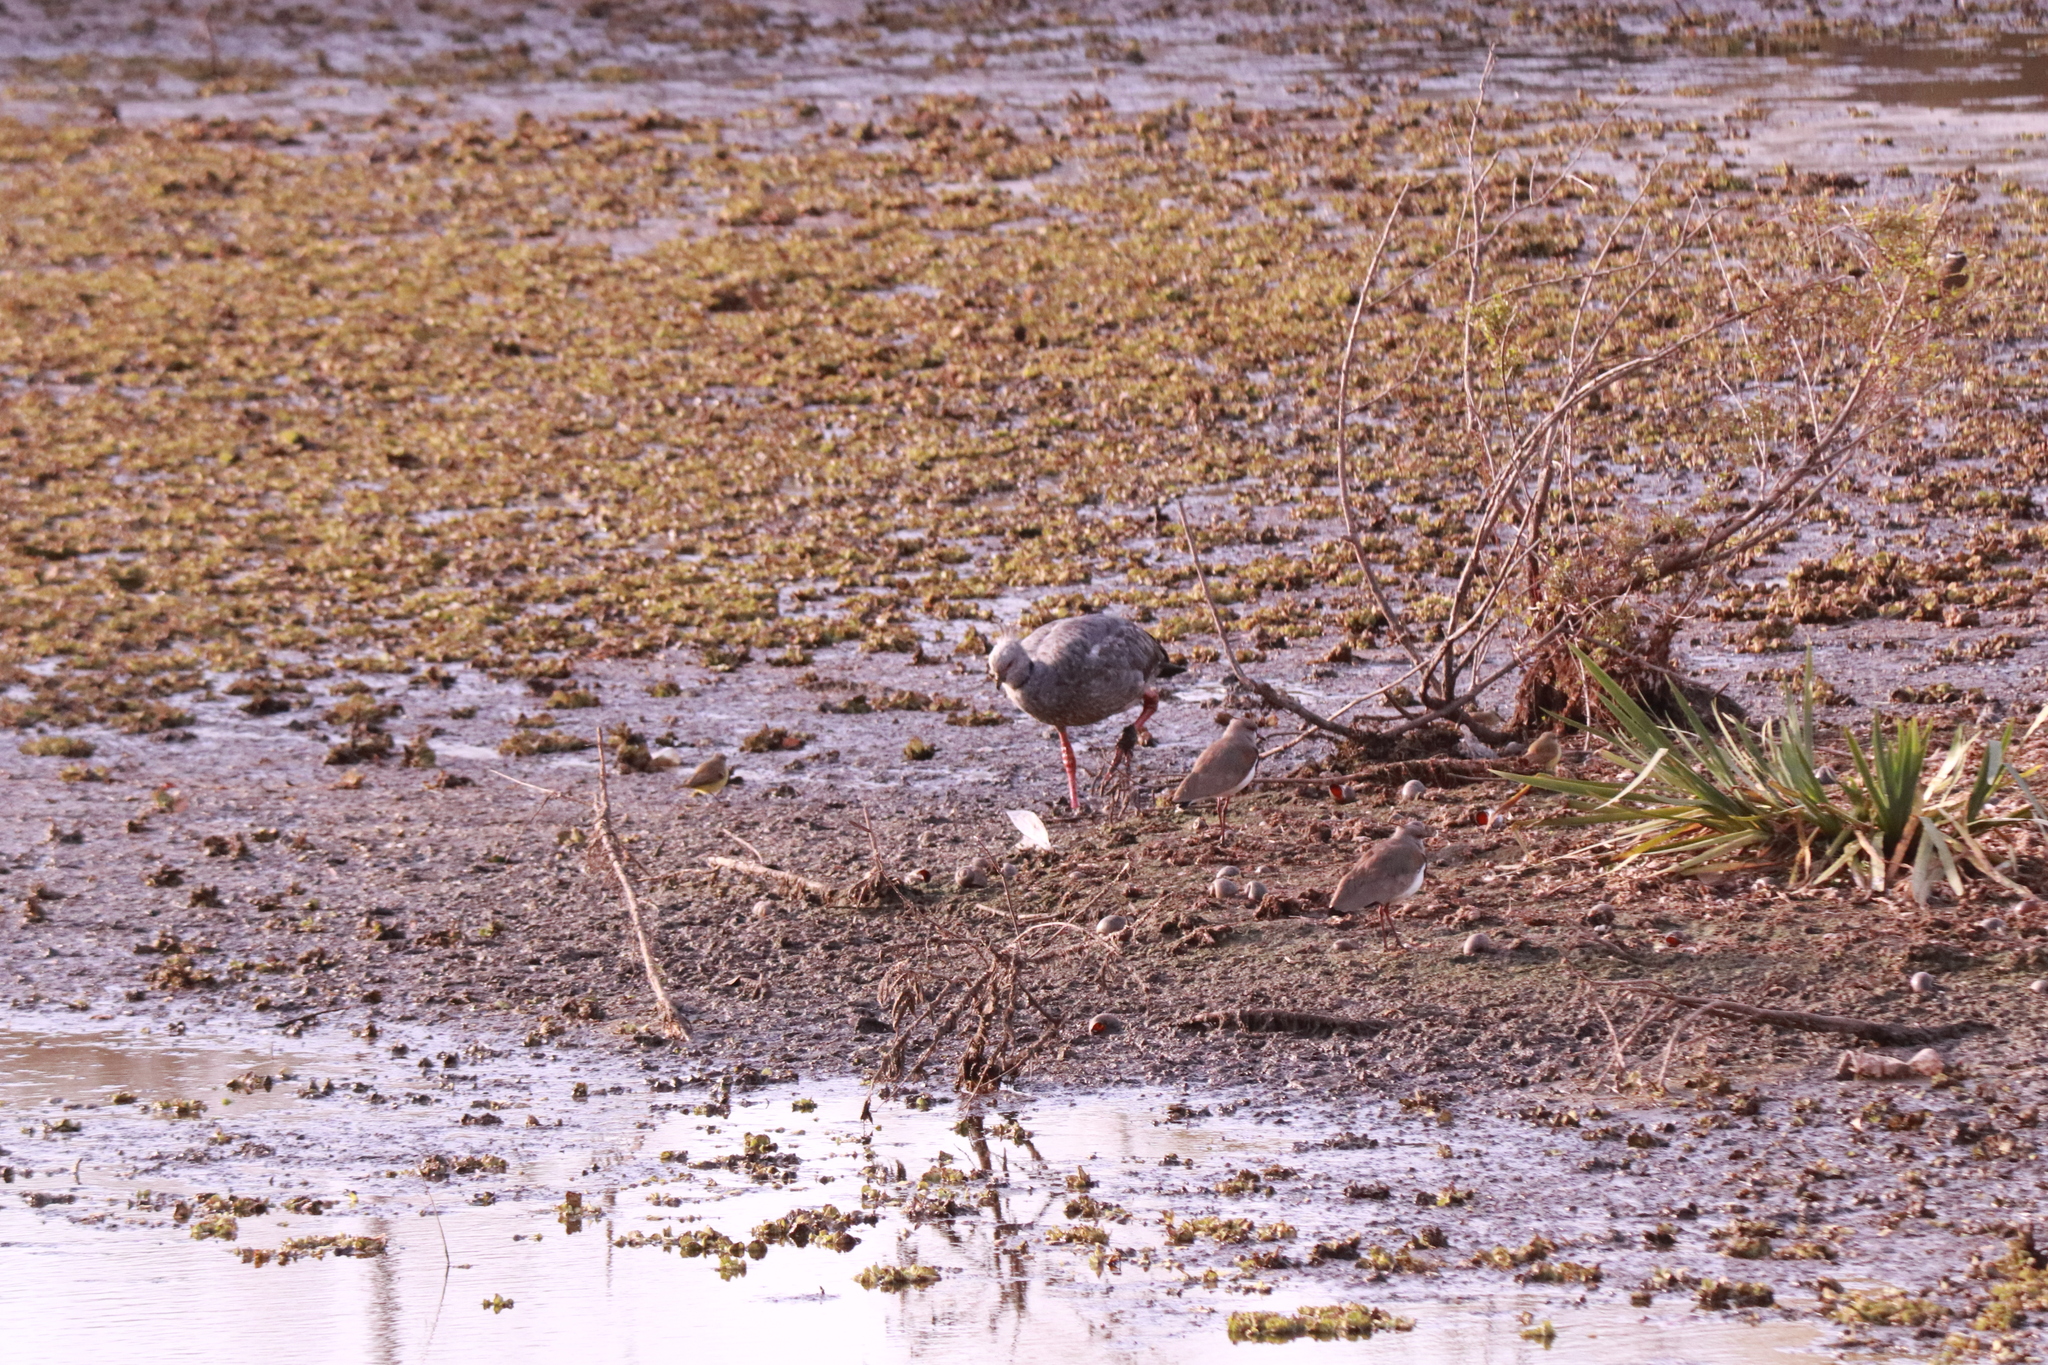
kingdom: Animalia
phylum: Chordata
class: Aves
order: Anseriformes
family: Anhimidae
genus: Chauna
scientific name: Chauna torquata
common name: Southern screamer
